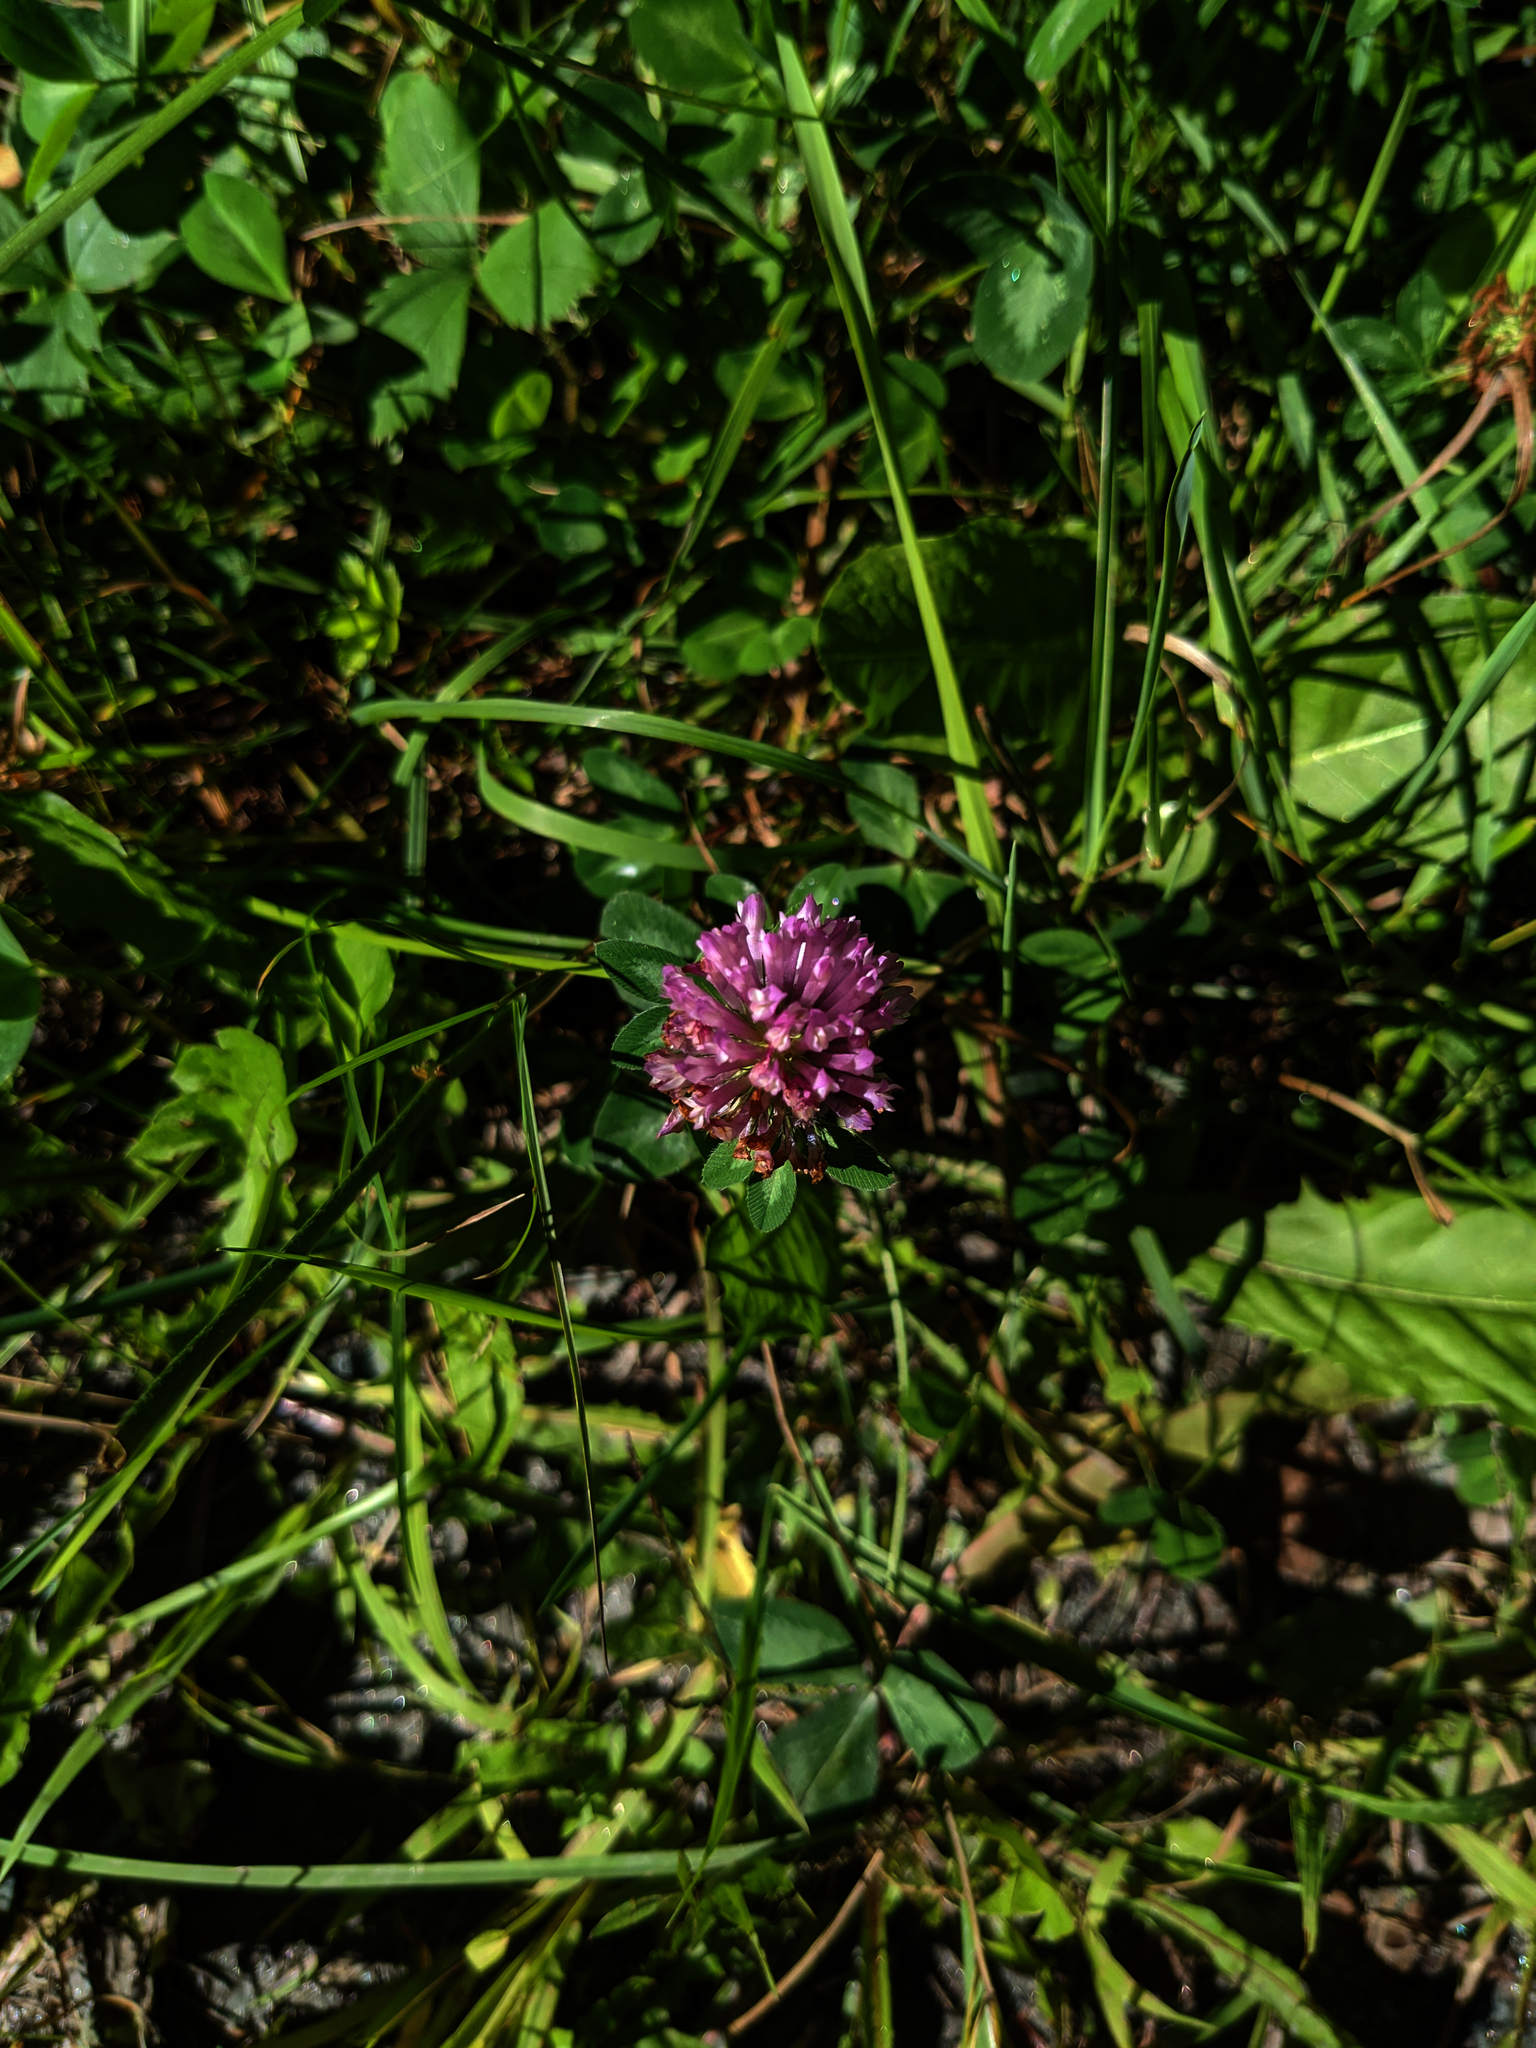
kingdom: Plantae
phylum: Tracheophyta
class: Magnoliopsida
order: Fabales
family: Fabaceae
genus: Trifolium
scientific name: Trifolium pratense
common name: Red clover
